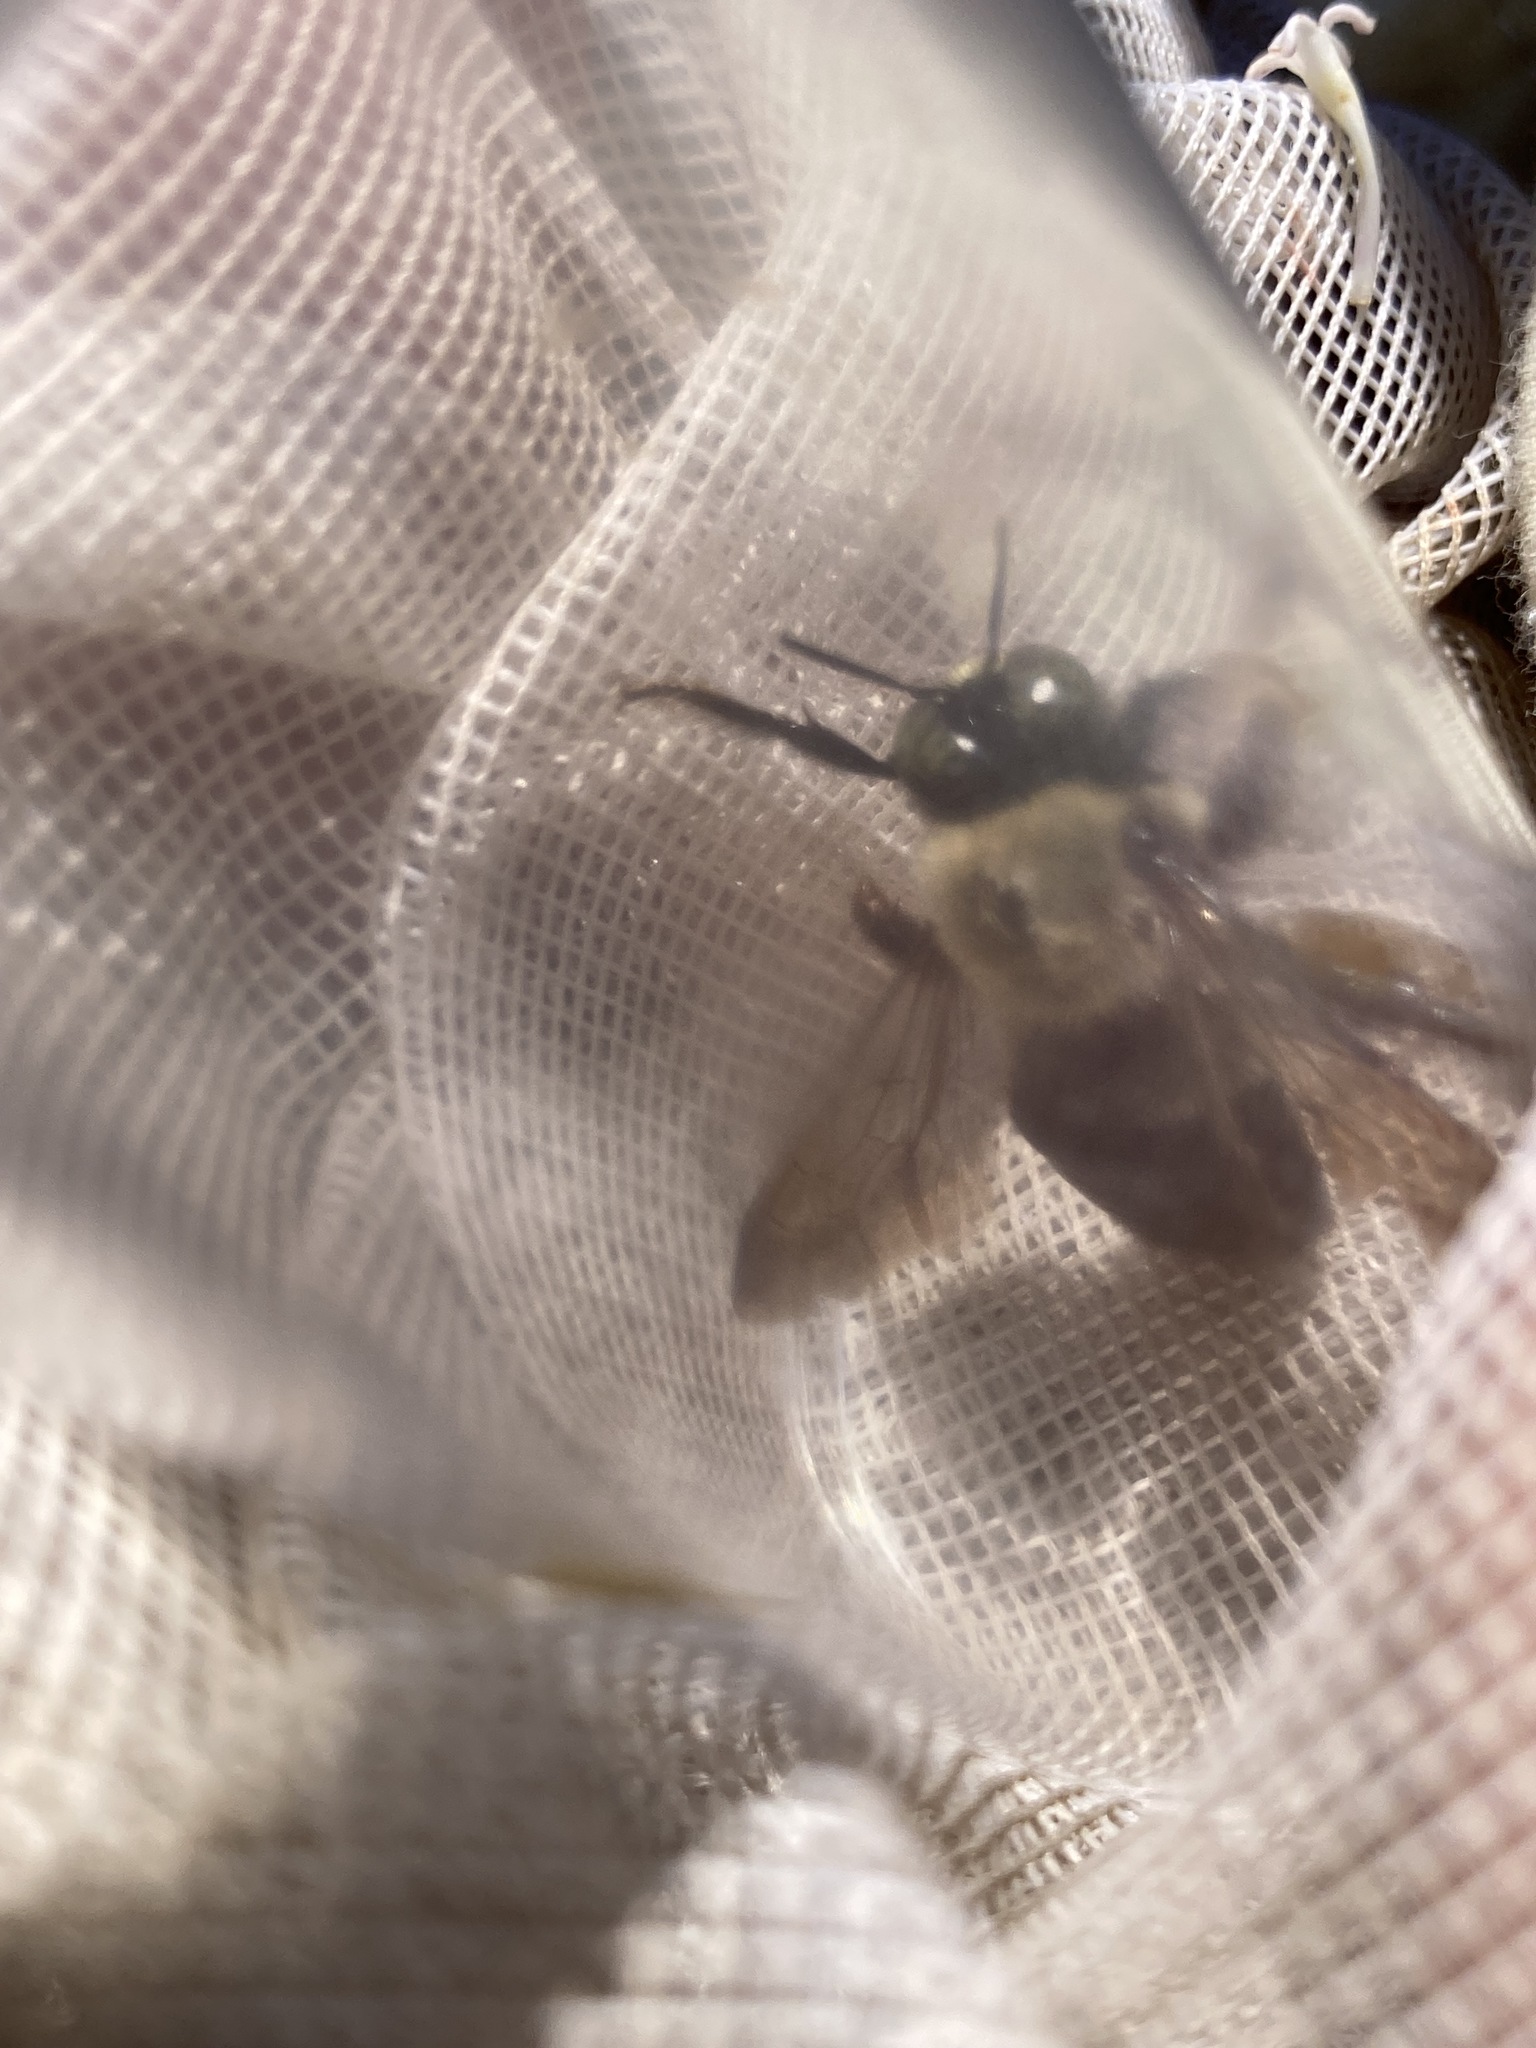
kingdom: Animalia
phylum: Arthropoda
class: Insecta
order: Hymenoptera
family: Apidae
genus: Xylocopa
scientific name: Xylocopa virginica
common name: Carpenter bee
